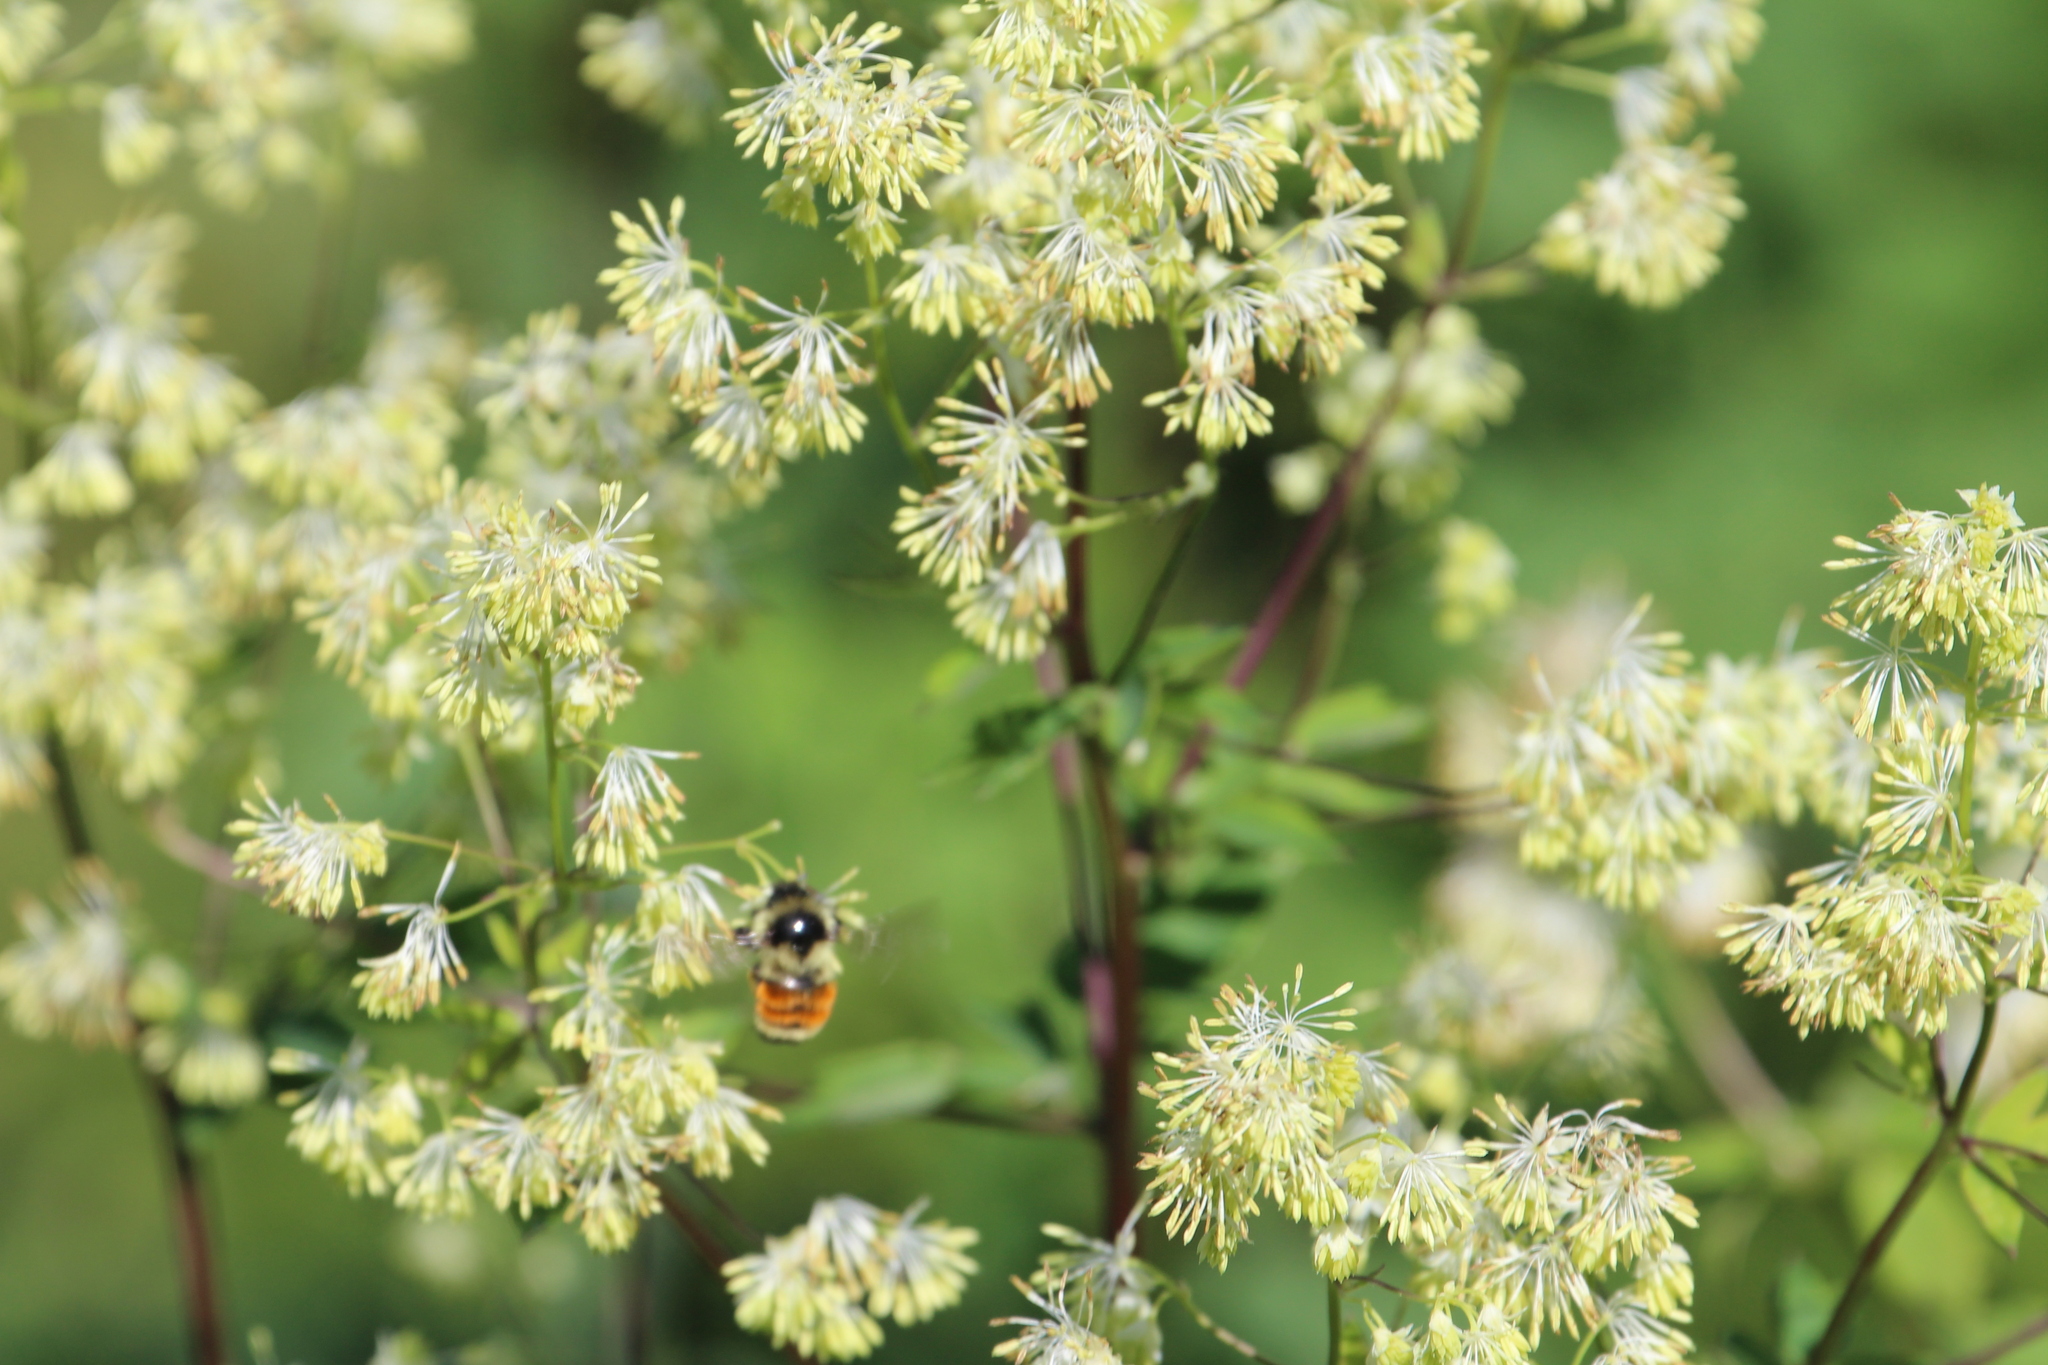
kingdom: Animalia
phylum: Arthropoda
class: Insecta
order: Hymenoptera
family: Apidae
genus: Bombus
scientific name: Bombus ternarius
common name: Tri-colored bumble bee
